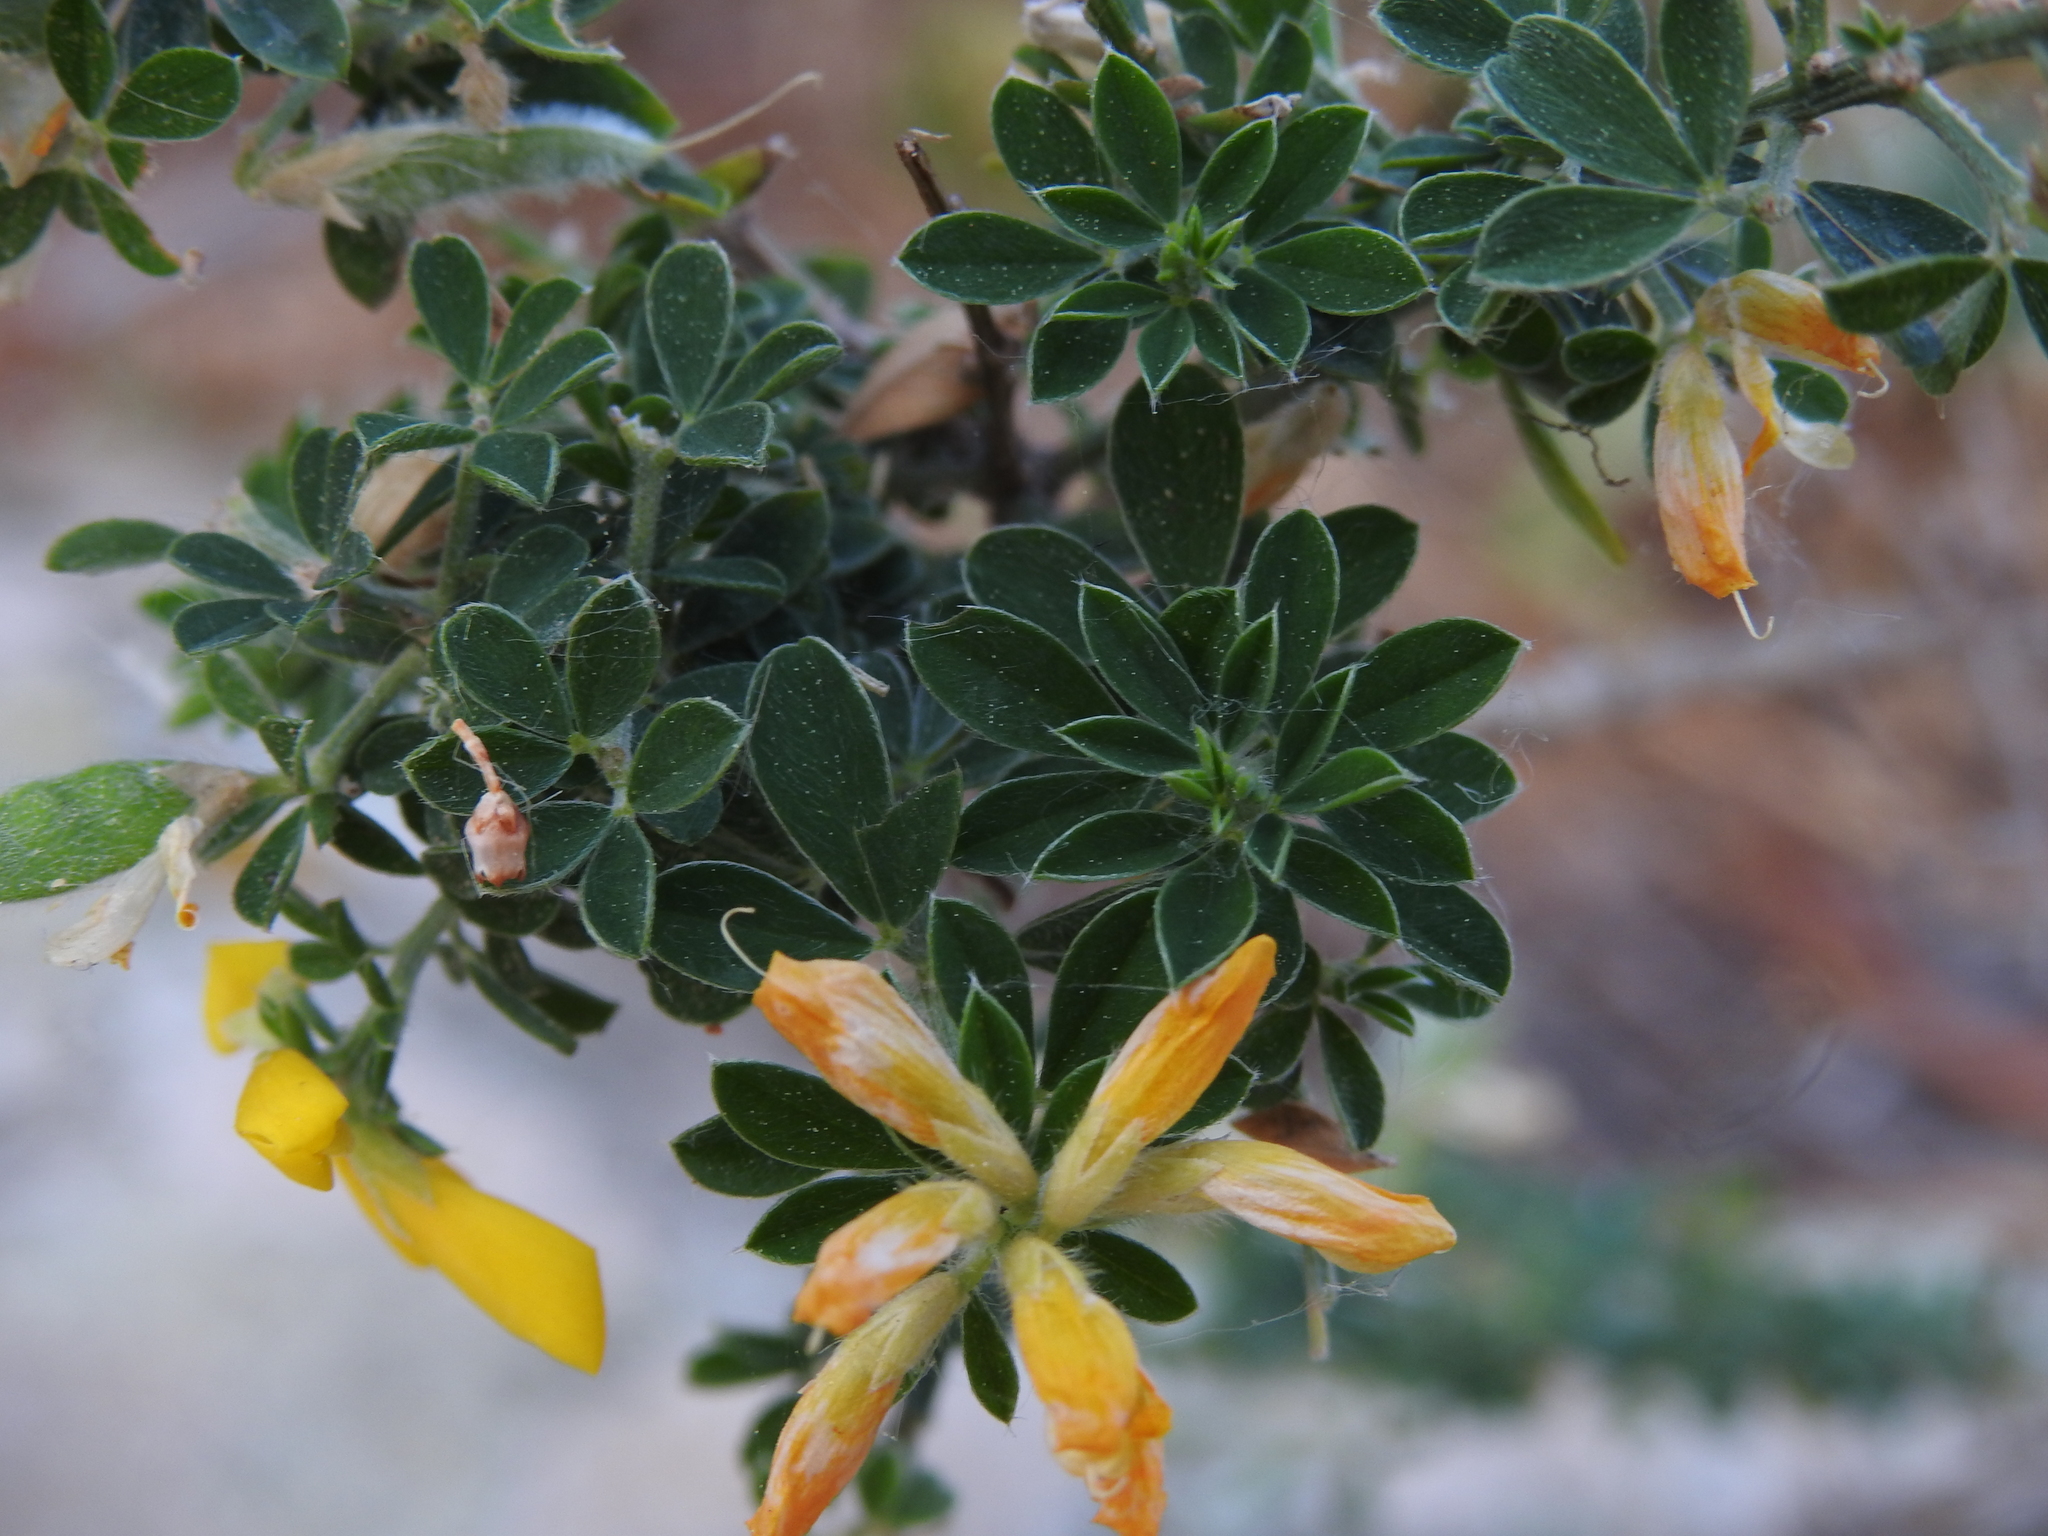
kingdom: Plantae
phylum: Tracheophyta
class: Magnoliopsida
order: Fabales
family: Fabaceae
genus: Genista
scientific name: Genista monspessulana
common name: Montpellier broom
